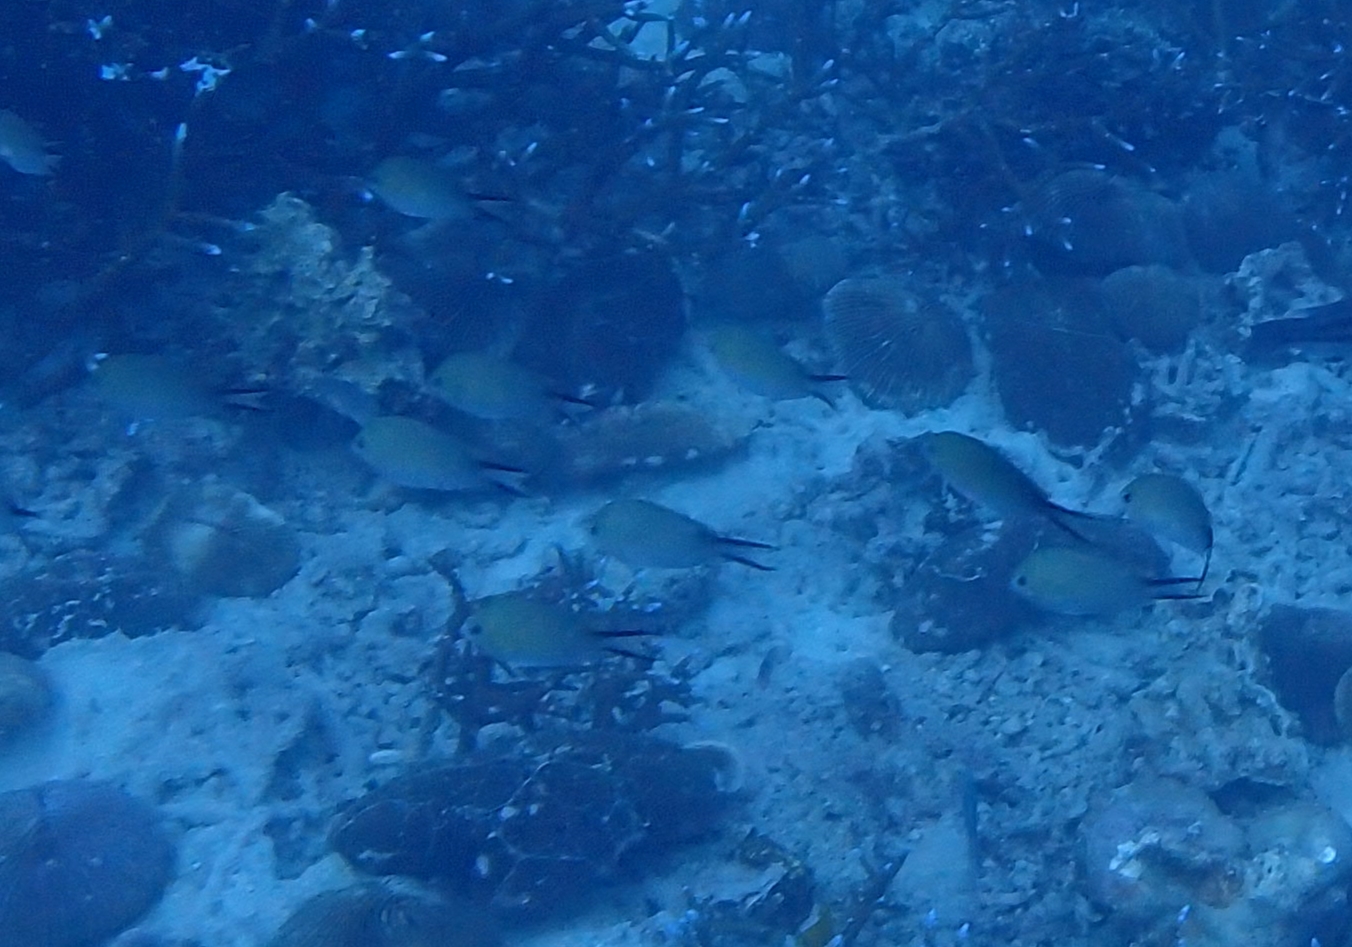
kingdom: Animalia
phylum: Chordata
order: Perciformes
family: Pomacentridae
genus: Chromis
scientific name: Chromis ternatensis
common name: Ternate chromis
